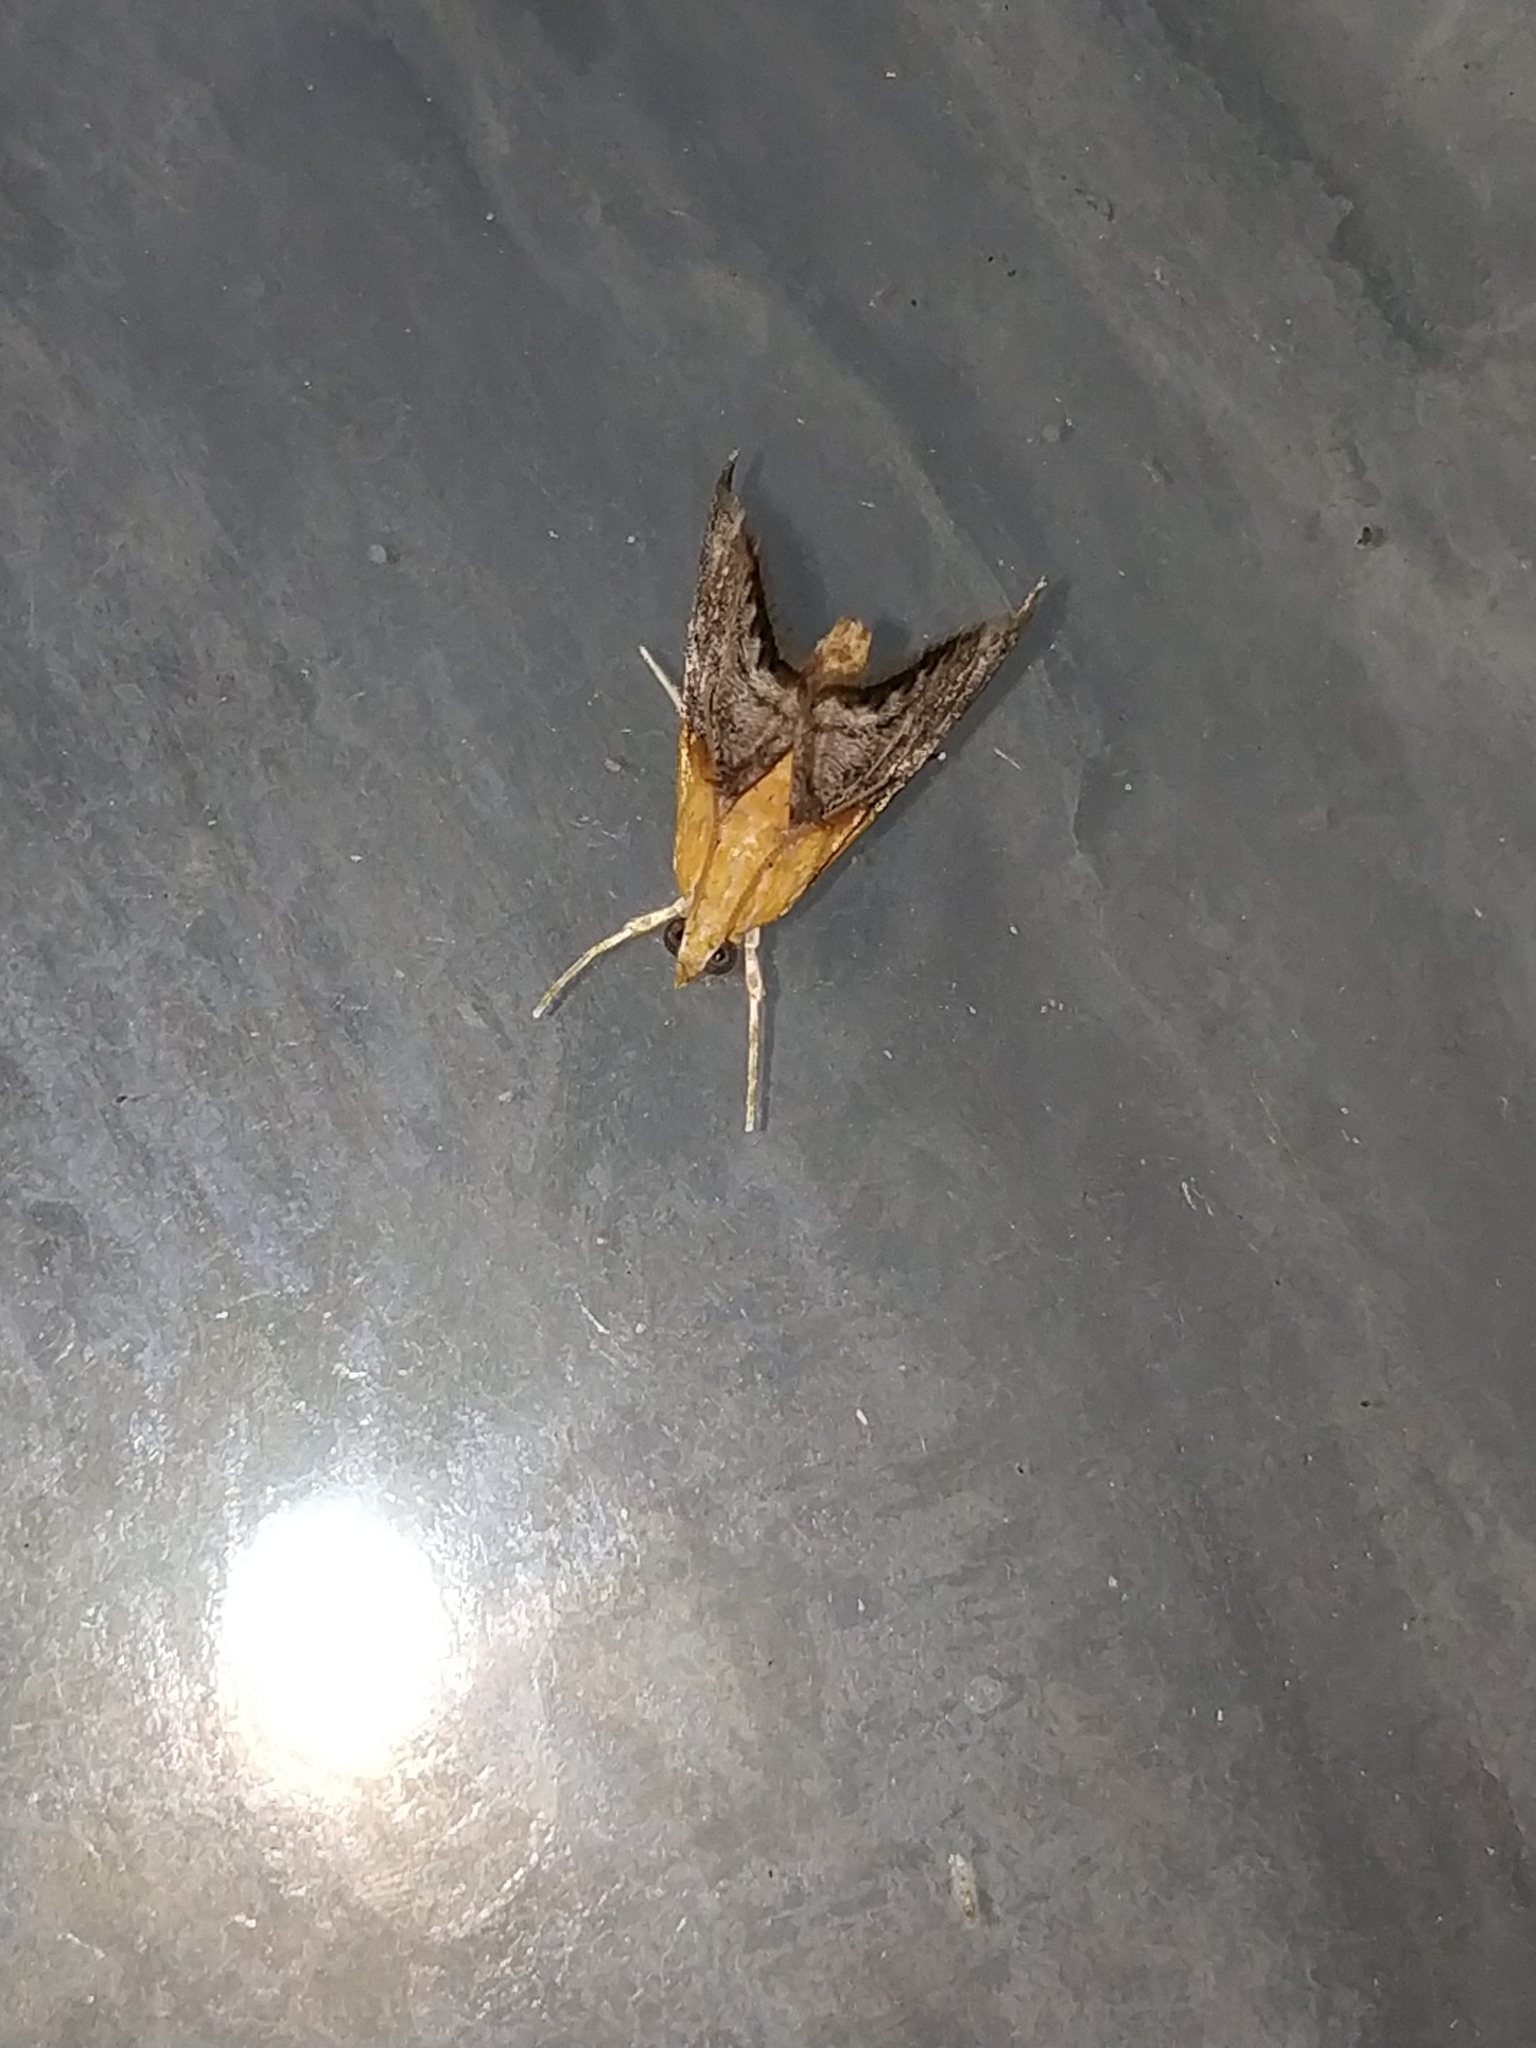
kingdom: Animalia
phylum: Arthropoda
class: Insecta
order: Lepidoptera
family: Crambidae
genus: Chalcoela
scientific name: Chalcoela iphitalis
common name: Sooty-winged chalcoela moth
